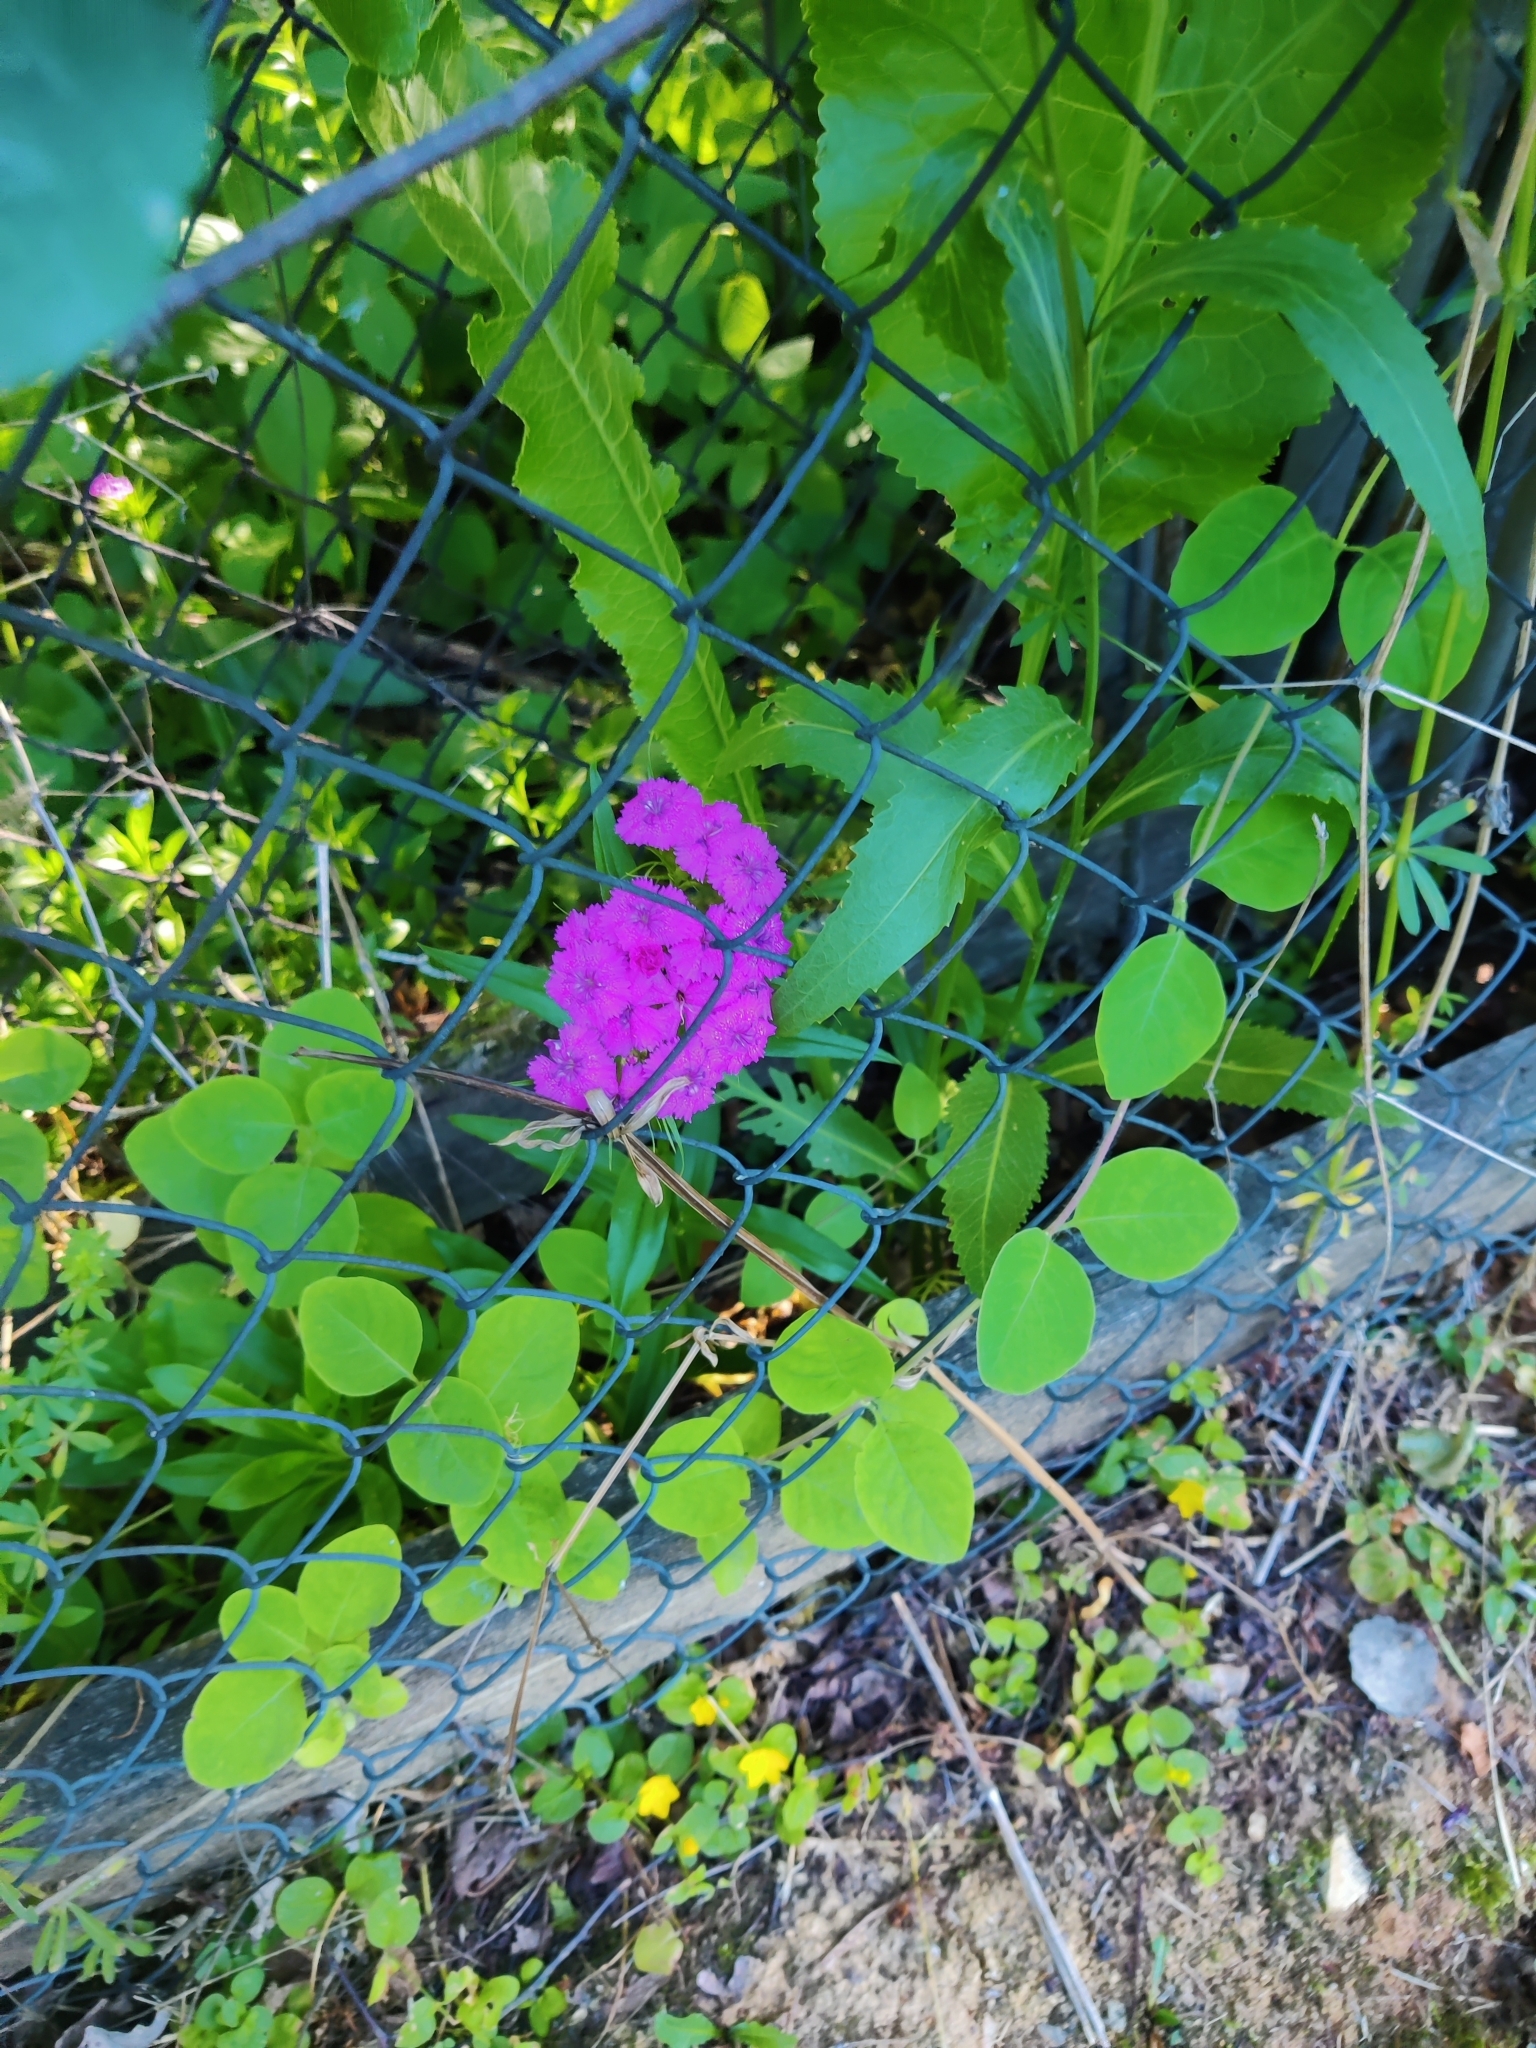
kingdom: Plantae
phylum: Tracheophyta
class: Magnoliopsida
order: Caryophyllales
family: Caryophyllaceae
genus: Dianthus
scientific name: Dianthus barbatus
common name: Sweet-william
